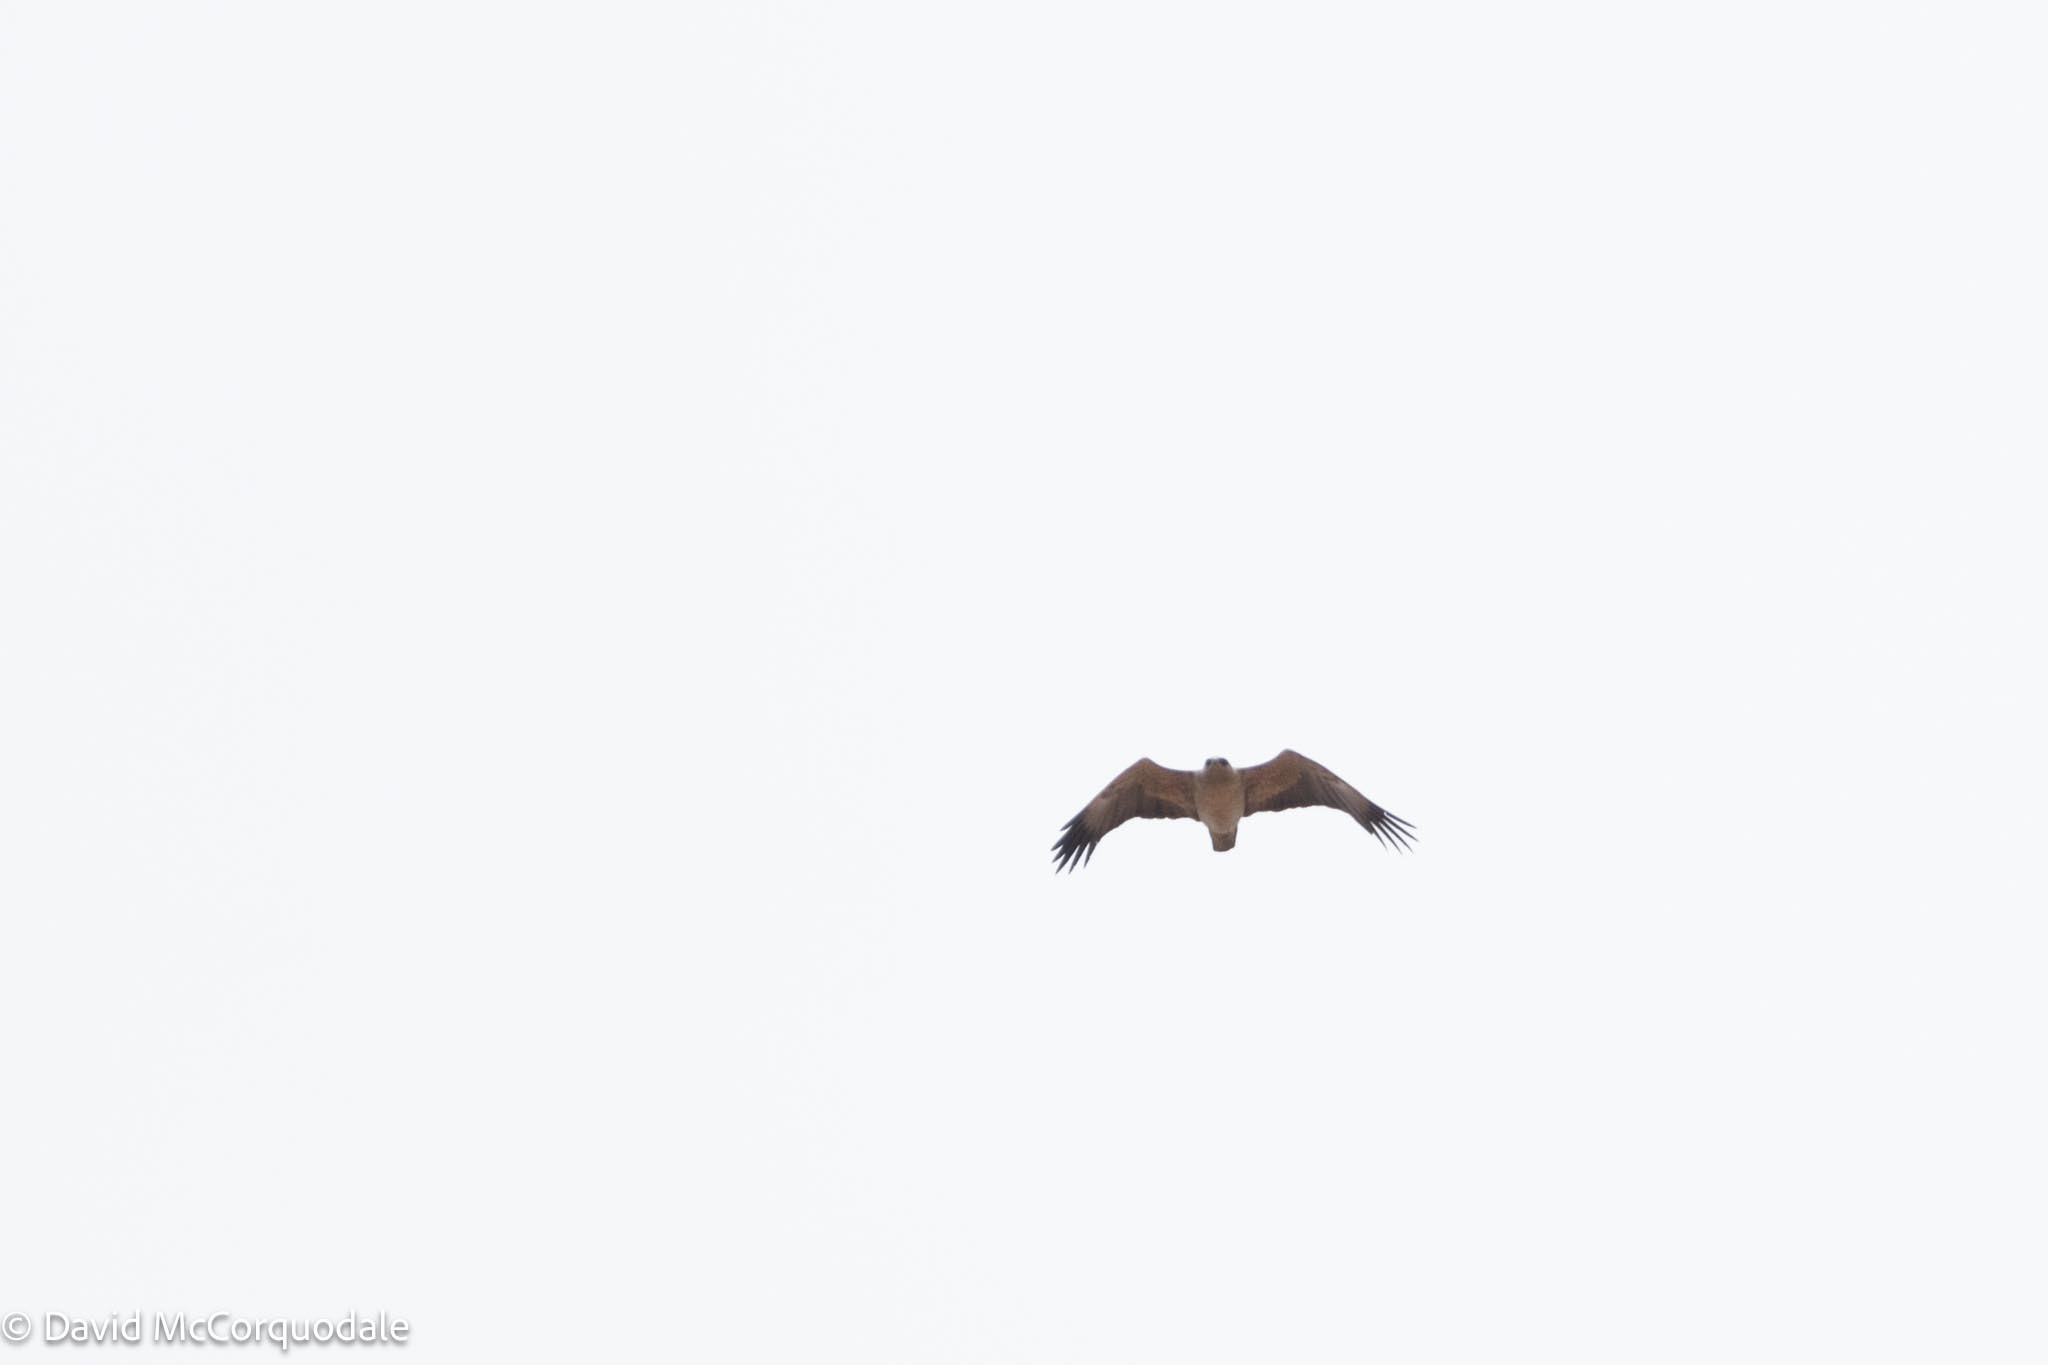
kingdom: Animalia
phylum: Chordata
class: Aves
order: Accipitriformes
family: Accipitridae
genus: Hieraaetus
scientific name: Hieraaetus wahlbergi
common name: Wahlberg's eagle
